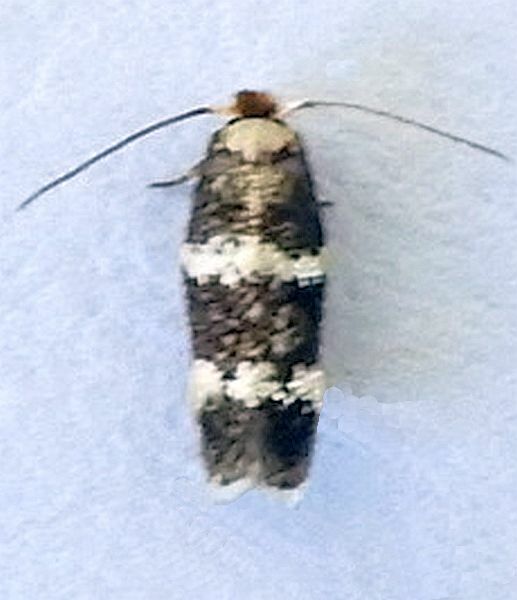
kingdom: Animalia
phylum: Arthropoda
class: Insecta
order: Lepidoptera
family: Nepticulidae
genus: Etainia
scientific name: Etainia
